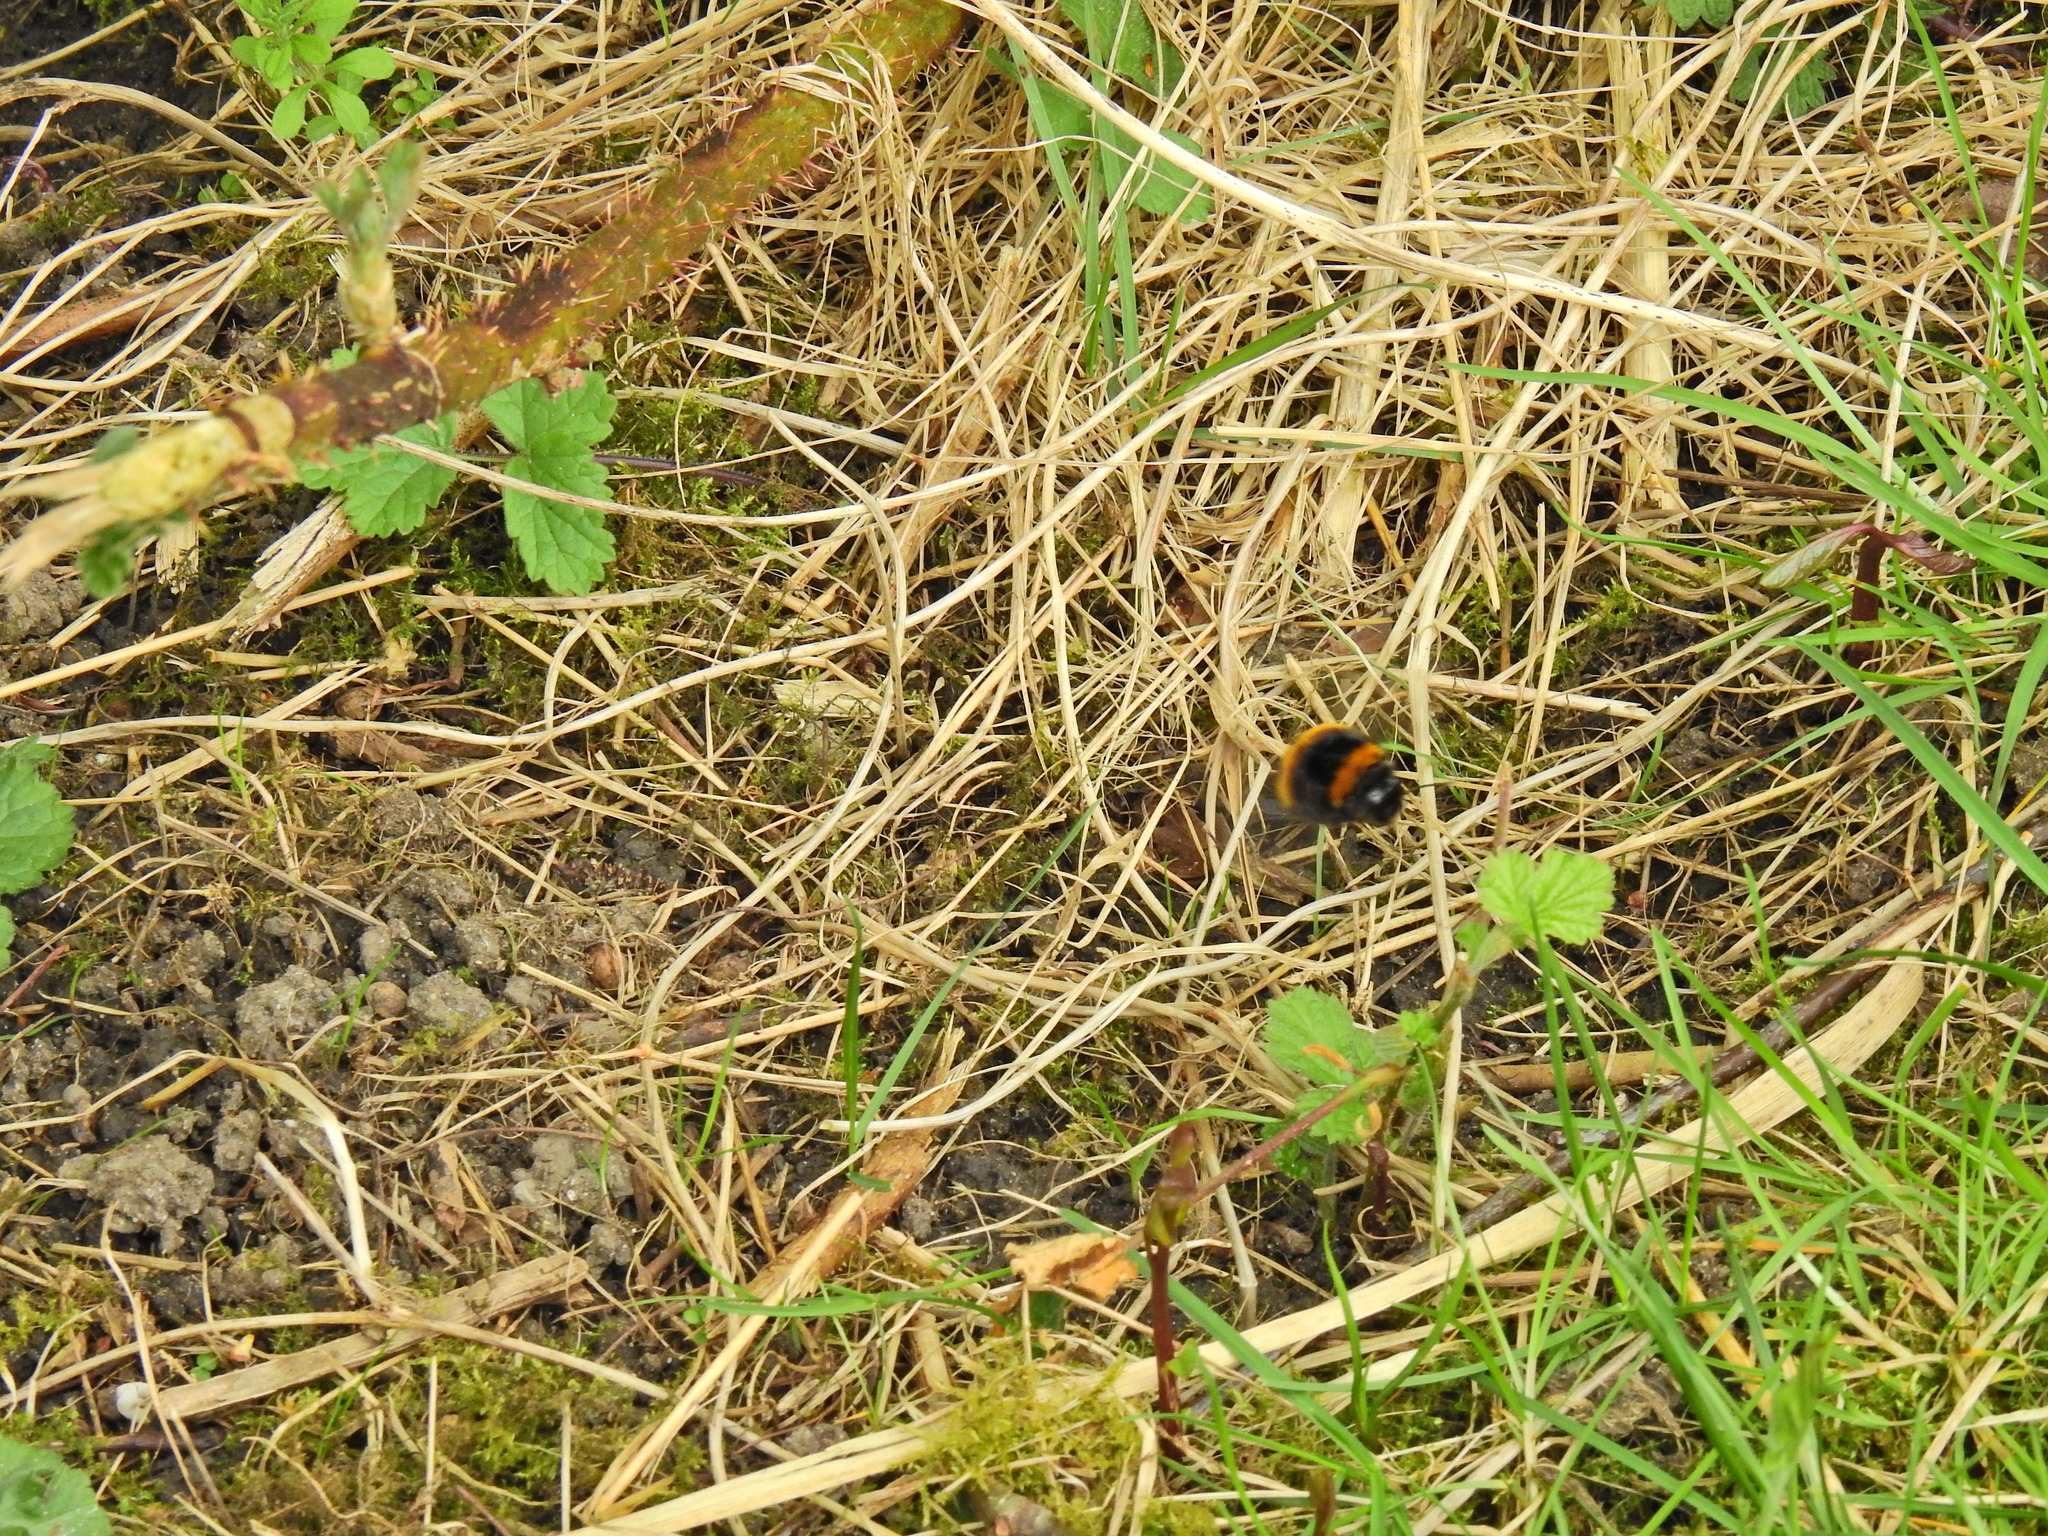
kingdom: Animalia
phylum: Arthropoda
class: Insecta
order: Hymenoptera
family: Apidae
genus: Bombus
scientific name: Bombus terrestris
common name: Buff-tailed bumblebee
